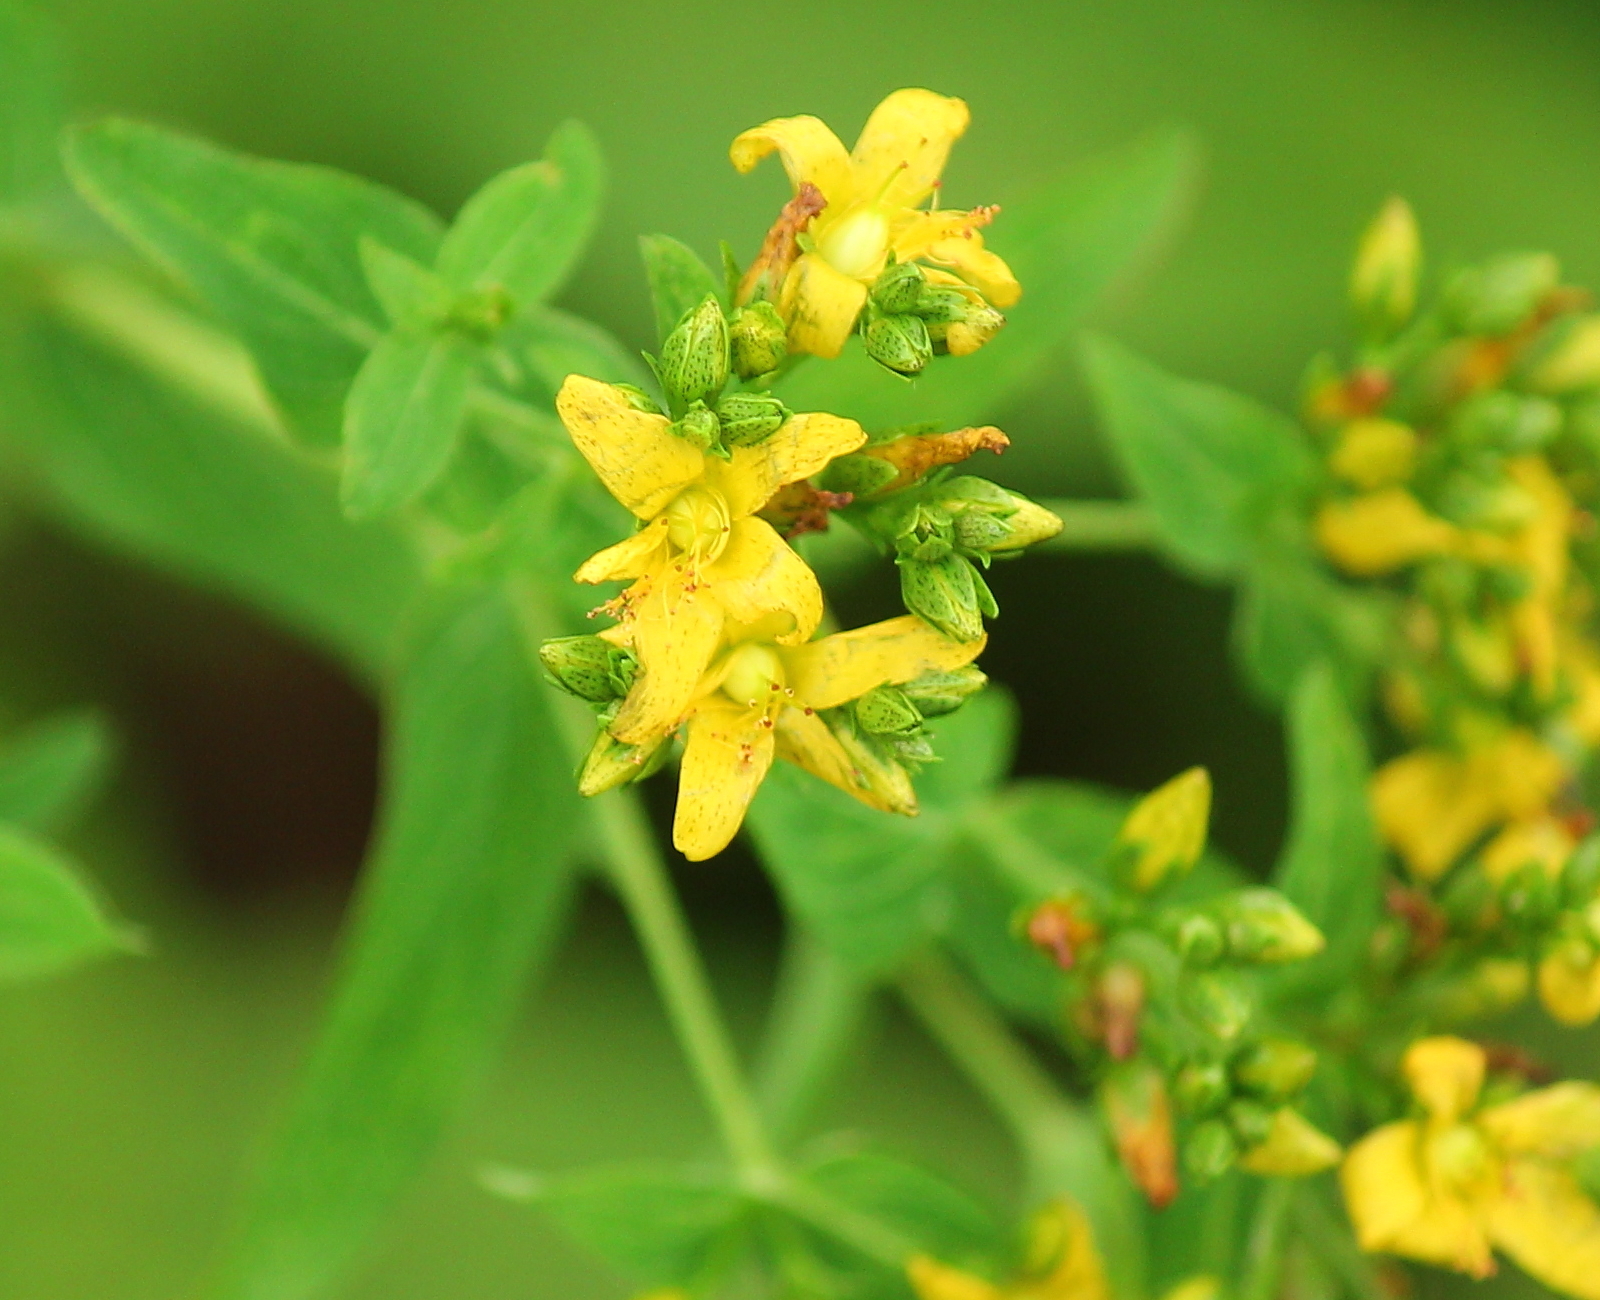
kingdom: Plantae
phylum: Tracheophyta
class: Magnoliopsida
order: Malpighiales
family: Hypericaceae
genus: Hypericum
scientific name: Hypericum punctatum
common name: Spotted st. john's-wort
